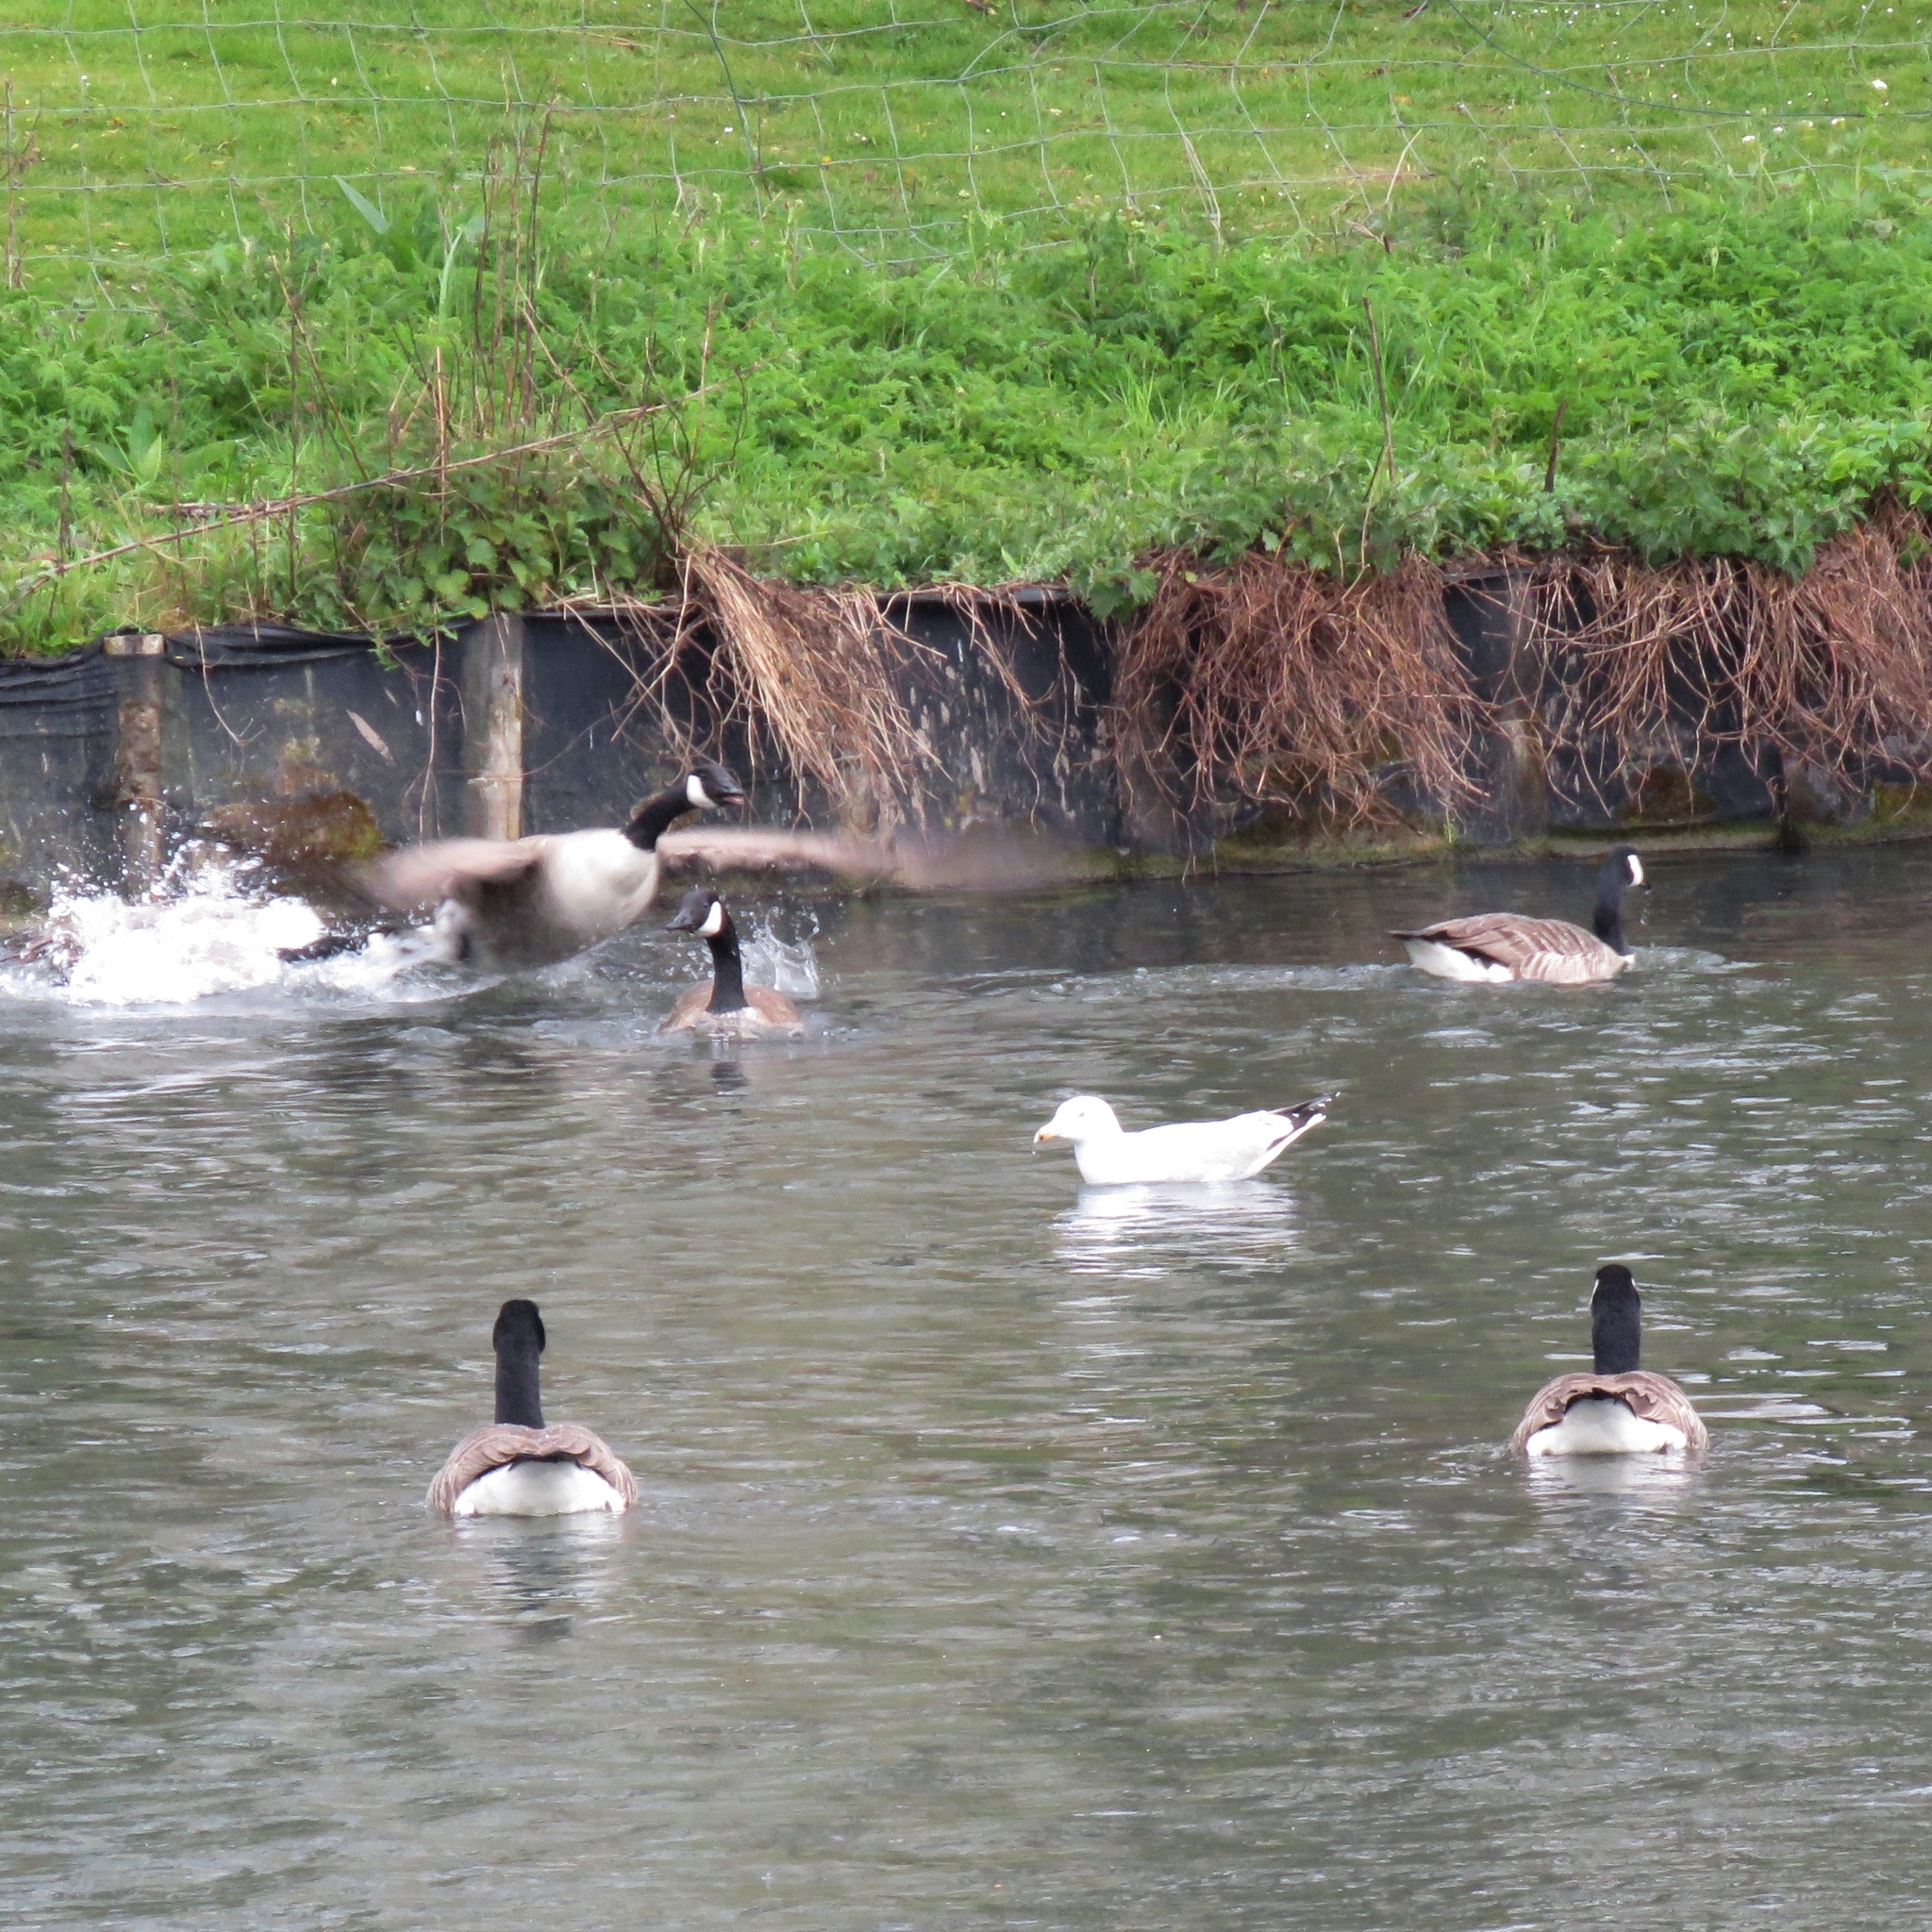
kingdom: Animalia
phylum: Chordata
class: Aves
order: Charadriiformes
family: Laridae
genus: Larus
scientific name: Larus argentatus
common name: Herring gull
